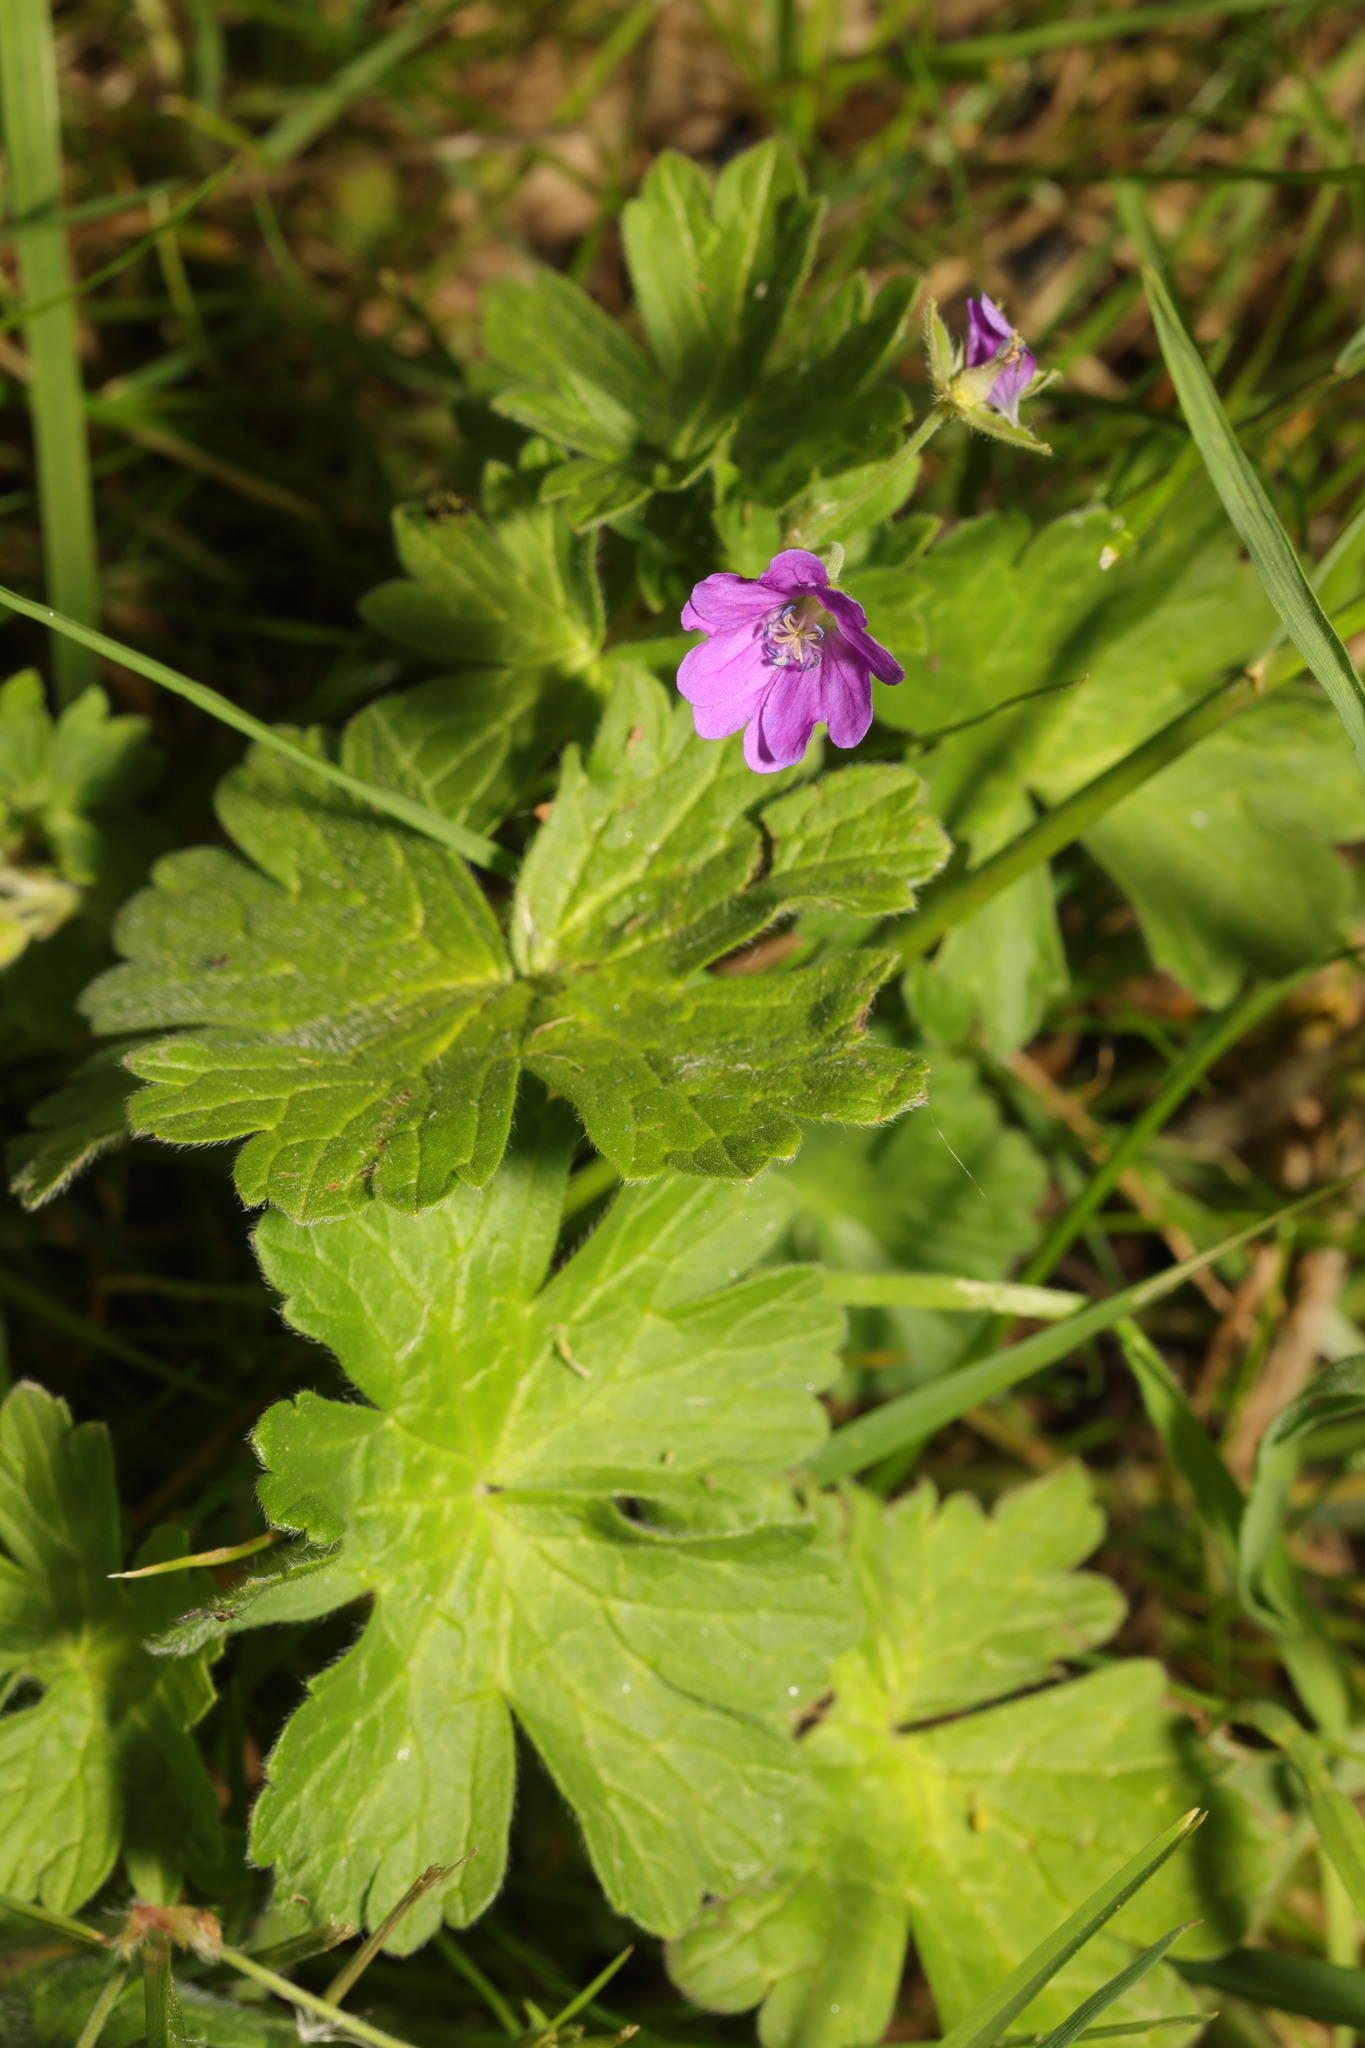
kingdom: Plantae
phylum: Tracheophyta
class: Magnoliopsida
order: Geraniales
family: Geraniaceae
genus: Geranium
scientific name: Geranium pyrenaicum
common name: Hedgerow crane's-bill
